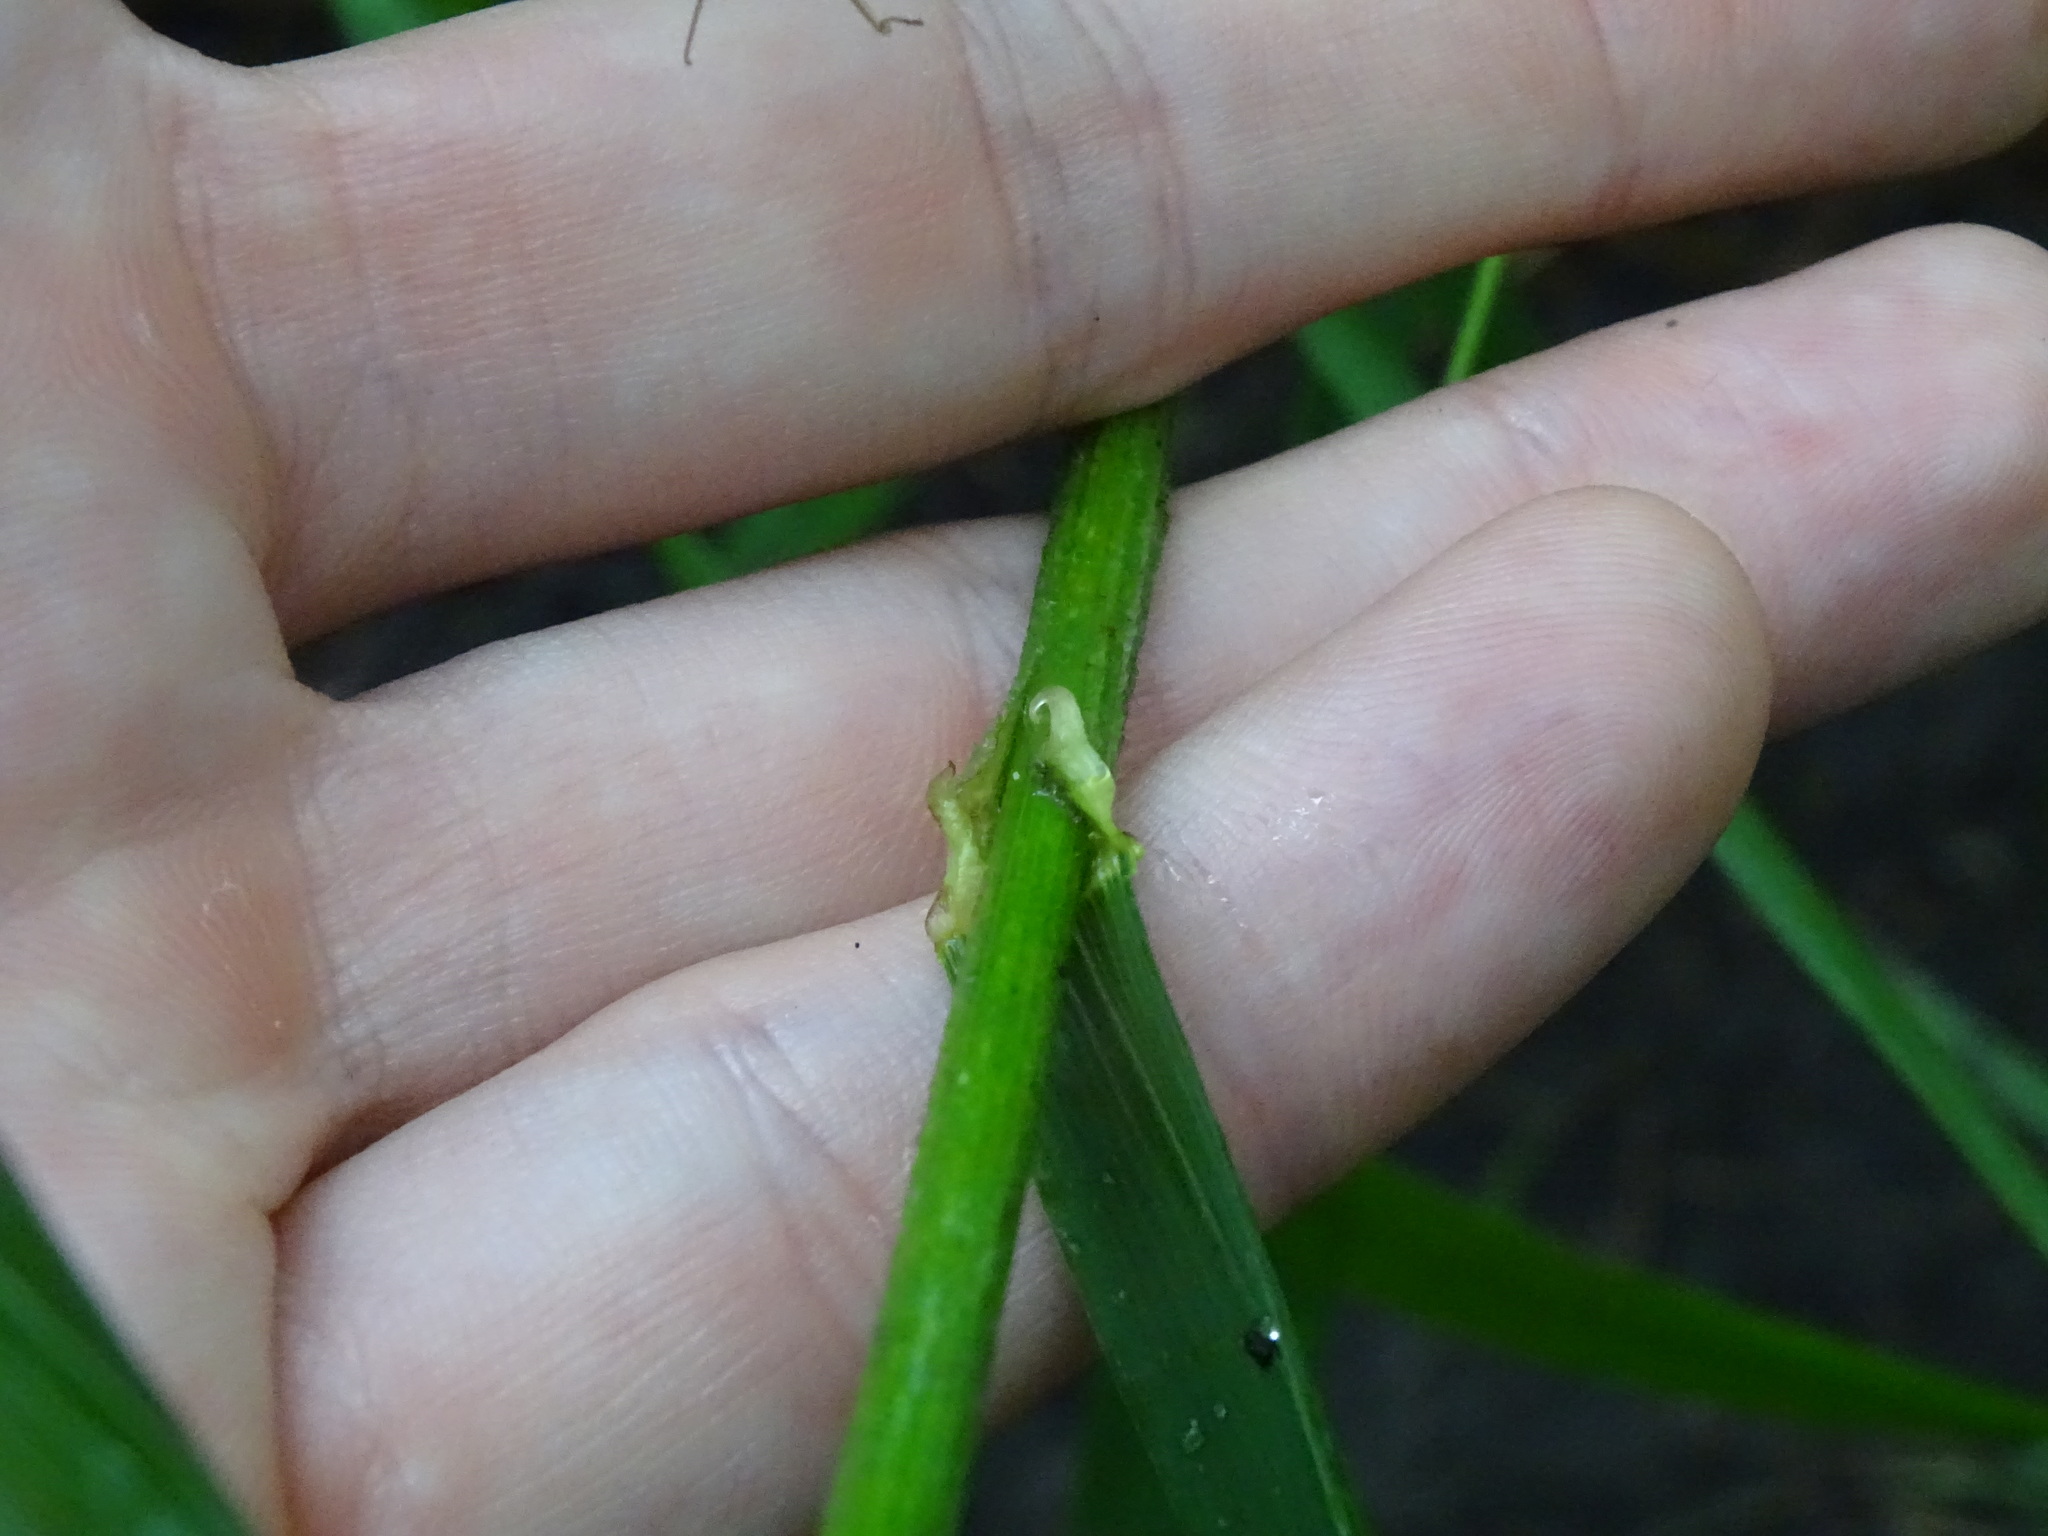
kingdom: Plantae
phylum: Tracheophyta
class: Liliopsida
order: Poales
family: Poaceae
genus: Bromus
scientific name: Bromus latiglumis
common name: Broad-glumed brome
